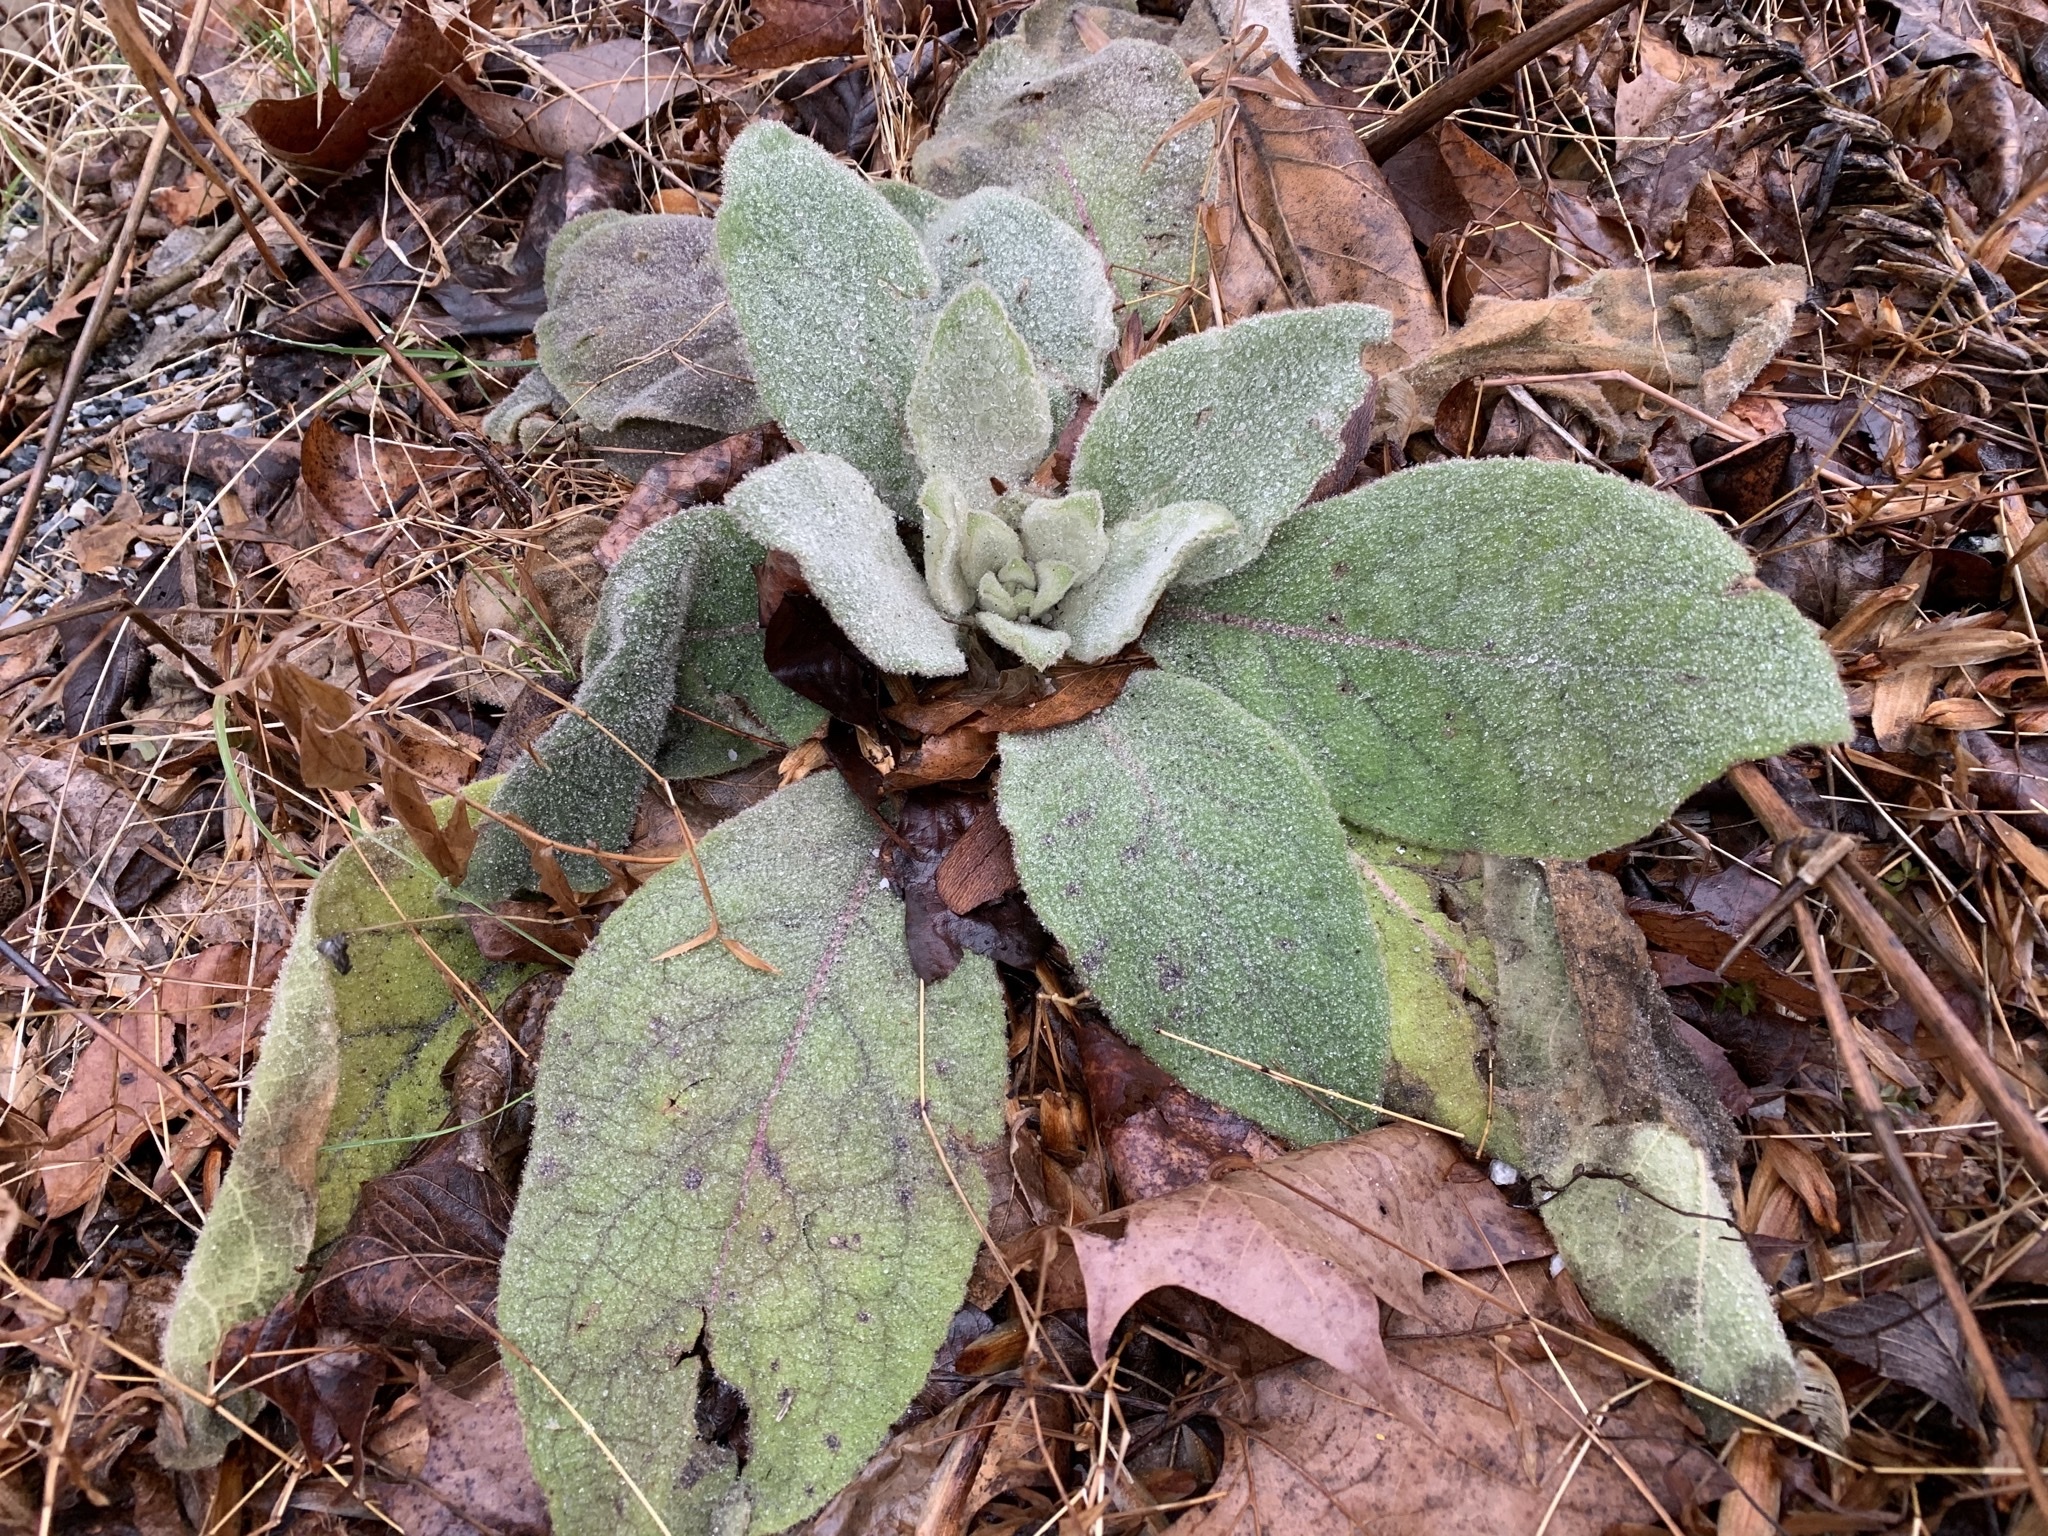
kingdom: Plantae
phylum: Tracheophyta
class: Magnoliopsida
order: Lamiales
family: Scrophulariaceae
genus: Verbascum
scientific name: Verbascum thapsus
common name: Common mullein
